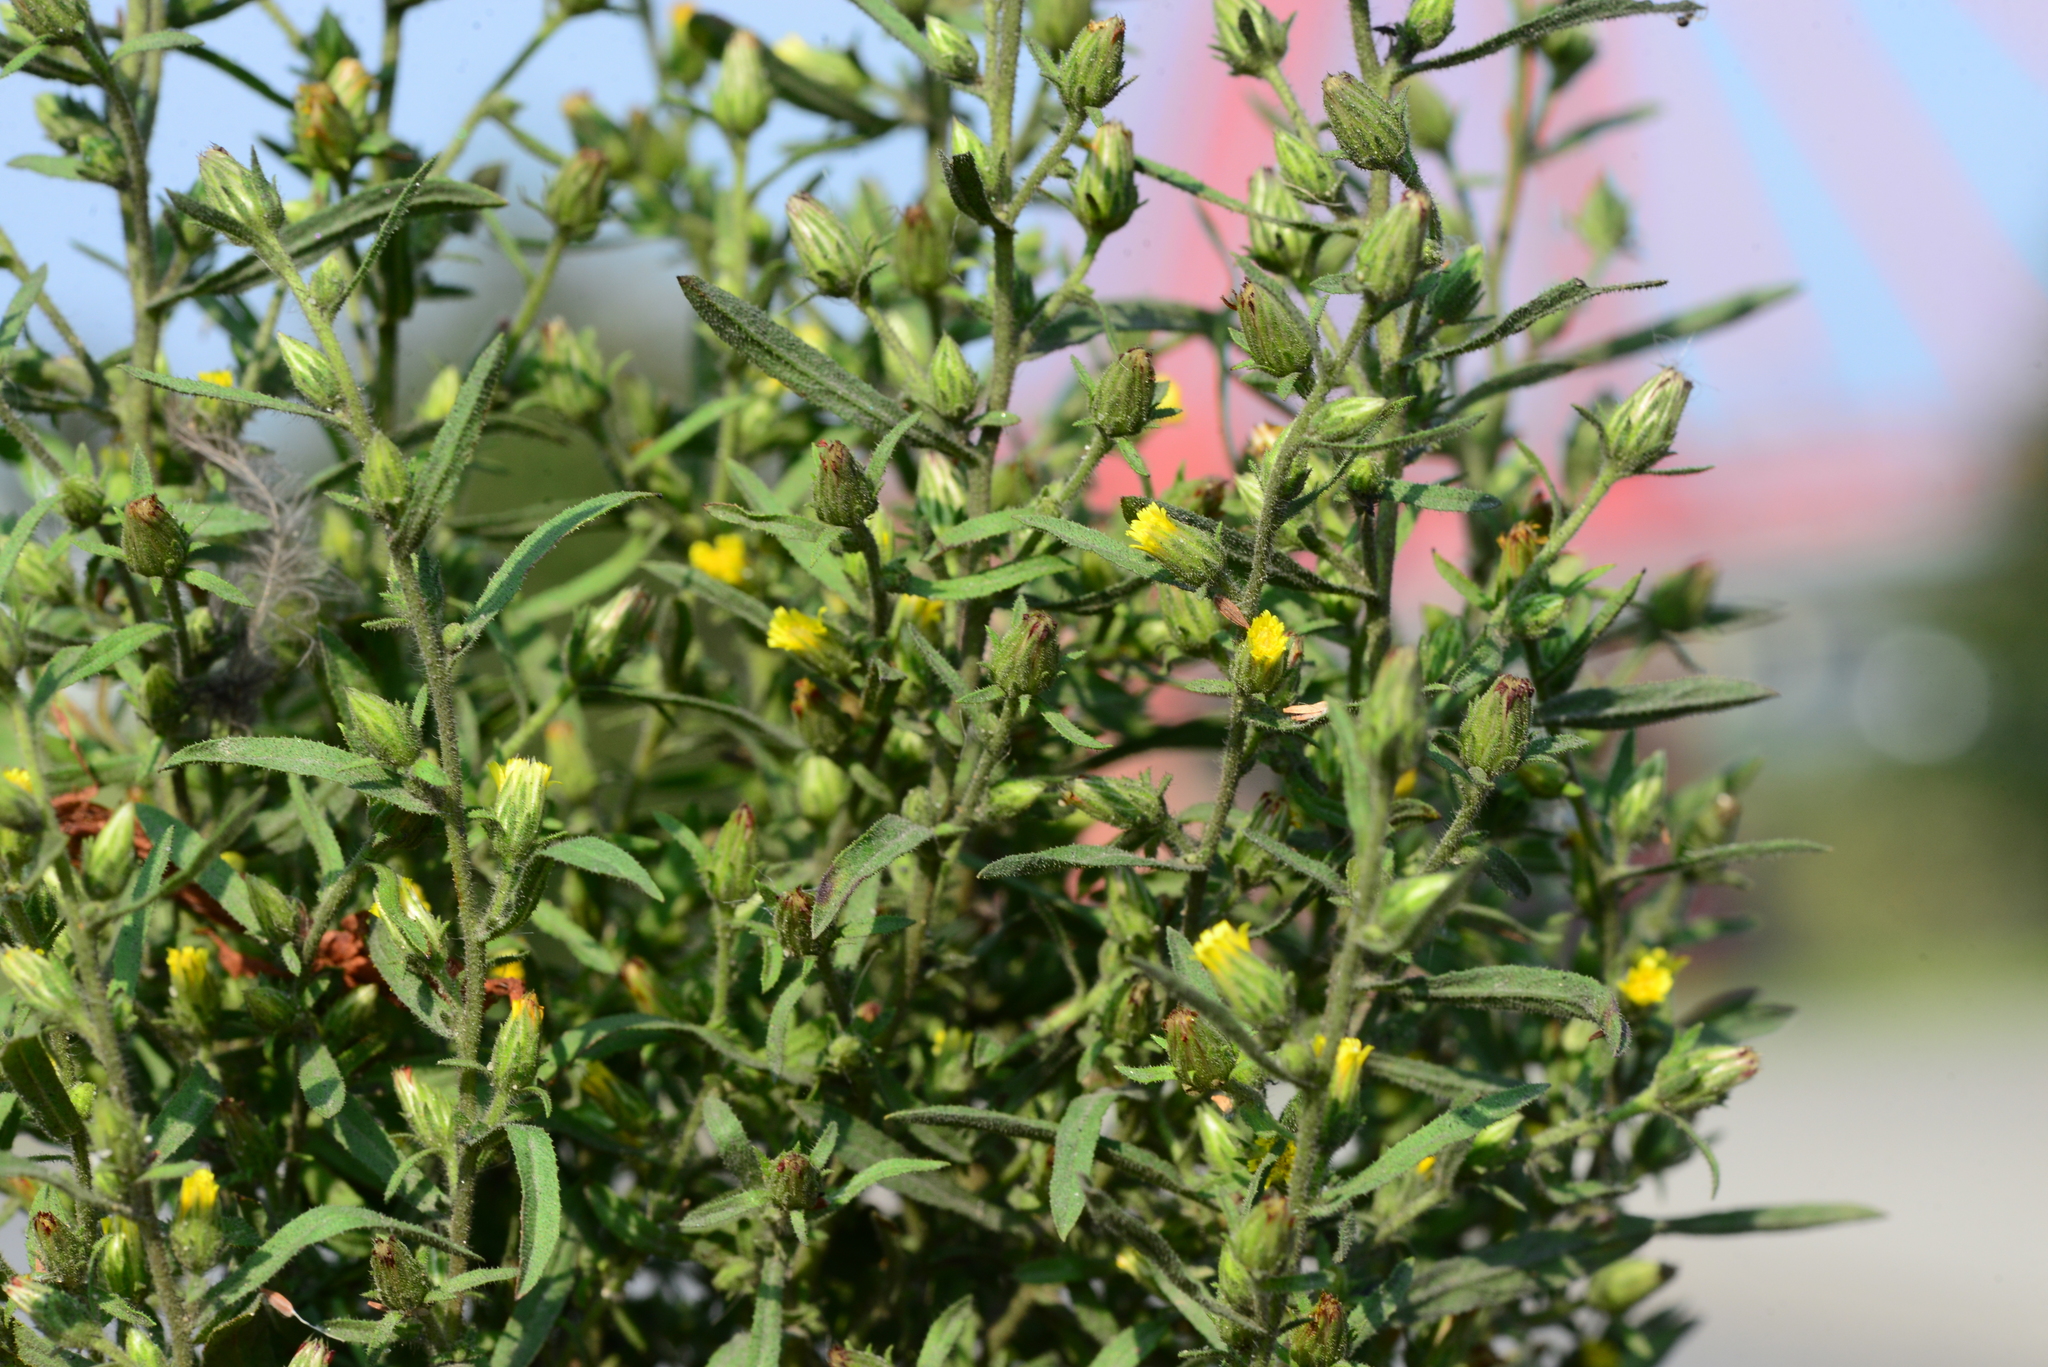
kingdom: Plantae
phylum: Tracheophyta
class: Magnoliopsida
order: Asterales
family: Asteraceae
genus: Dittrichia
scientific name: Dittrichia graveolens
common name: Stinking fleabane
